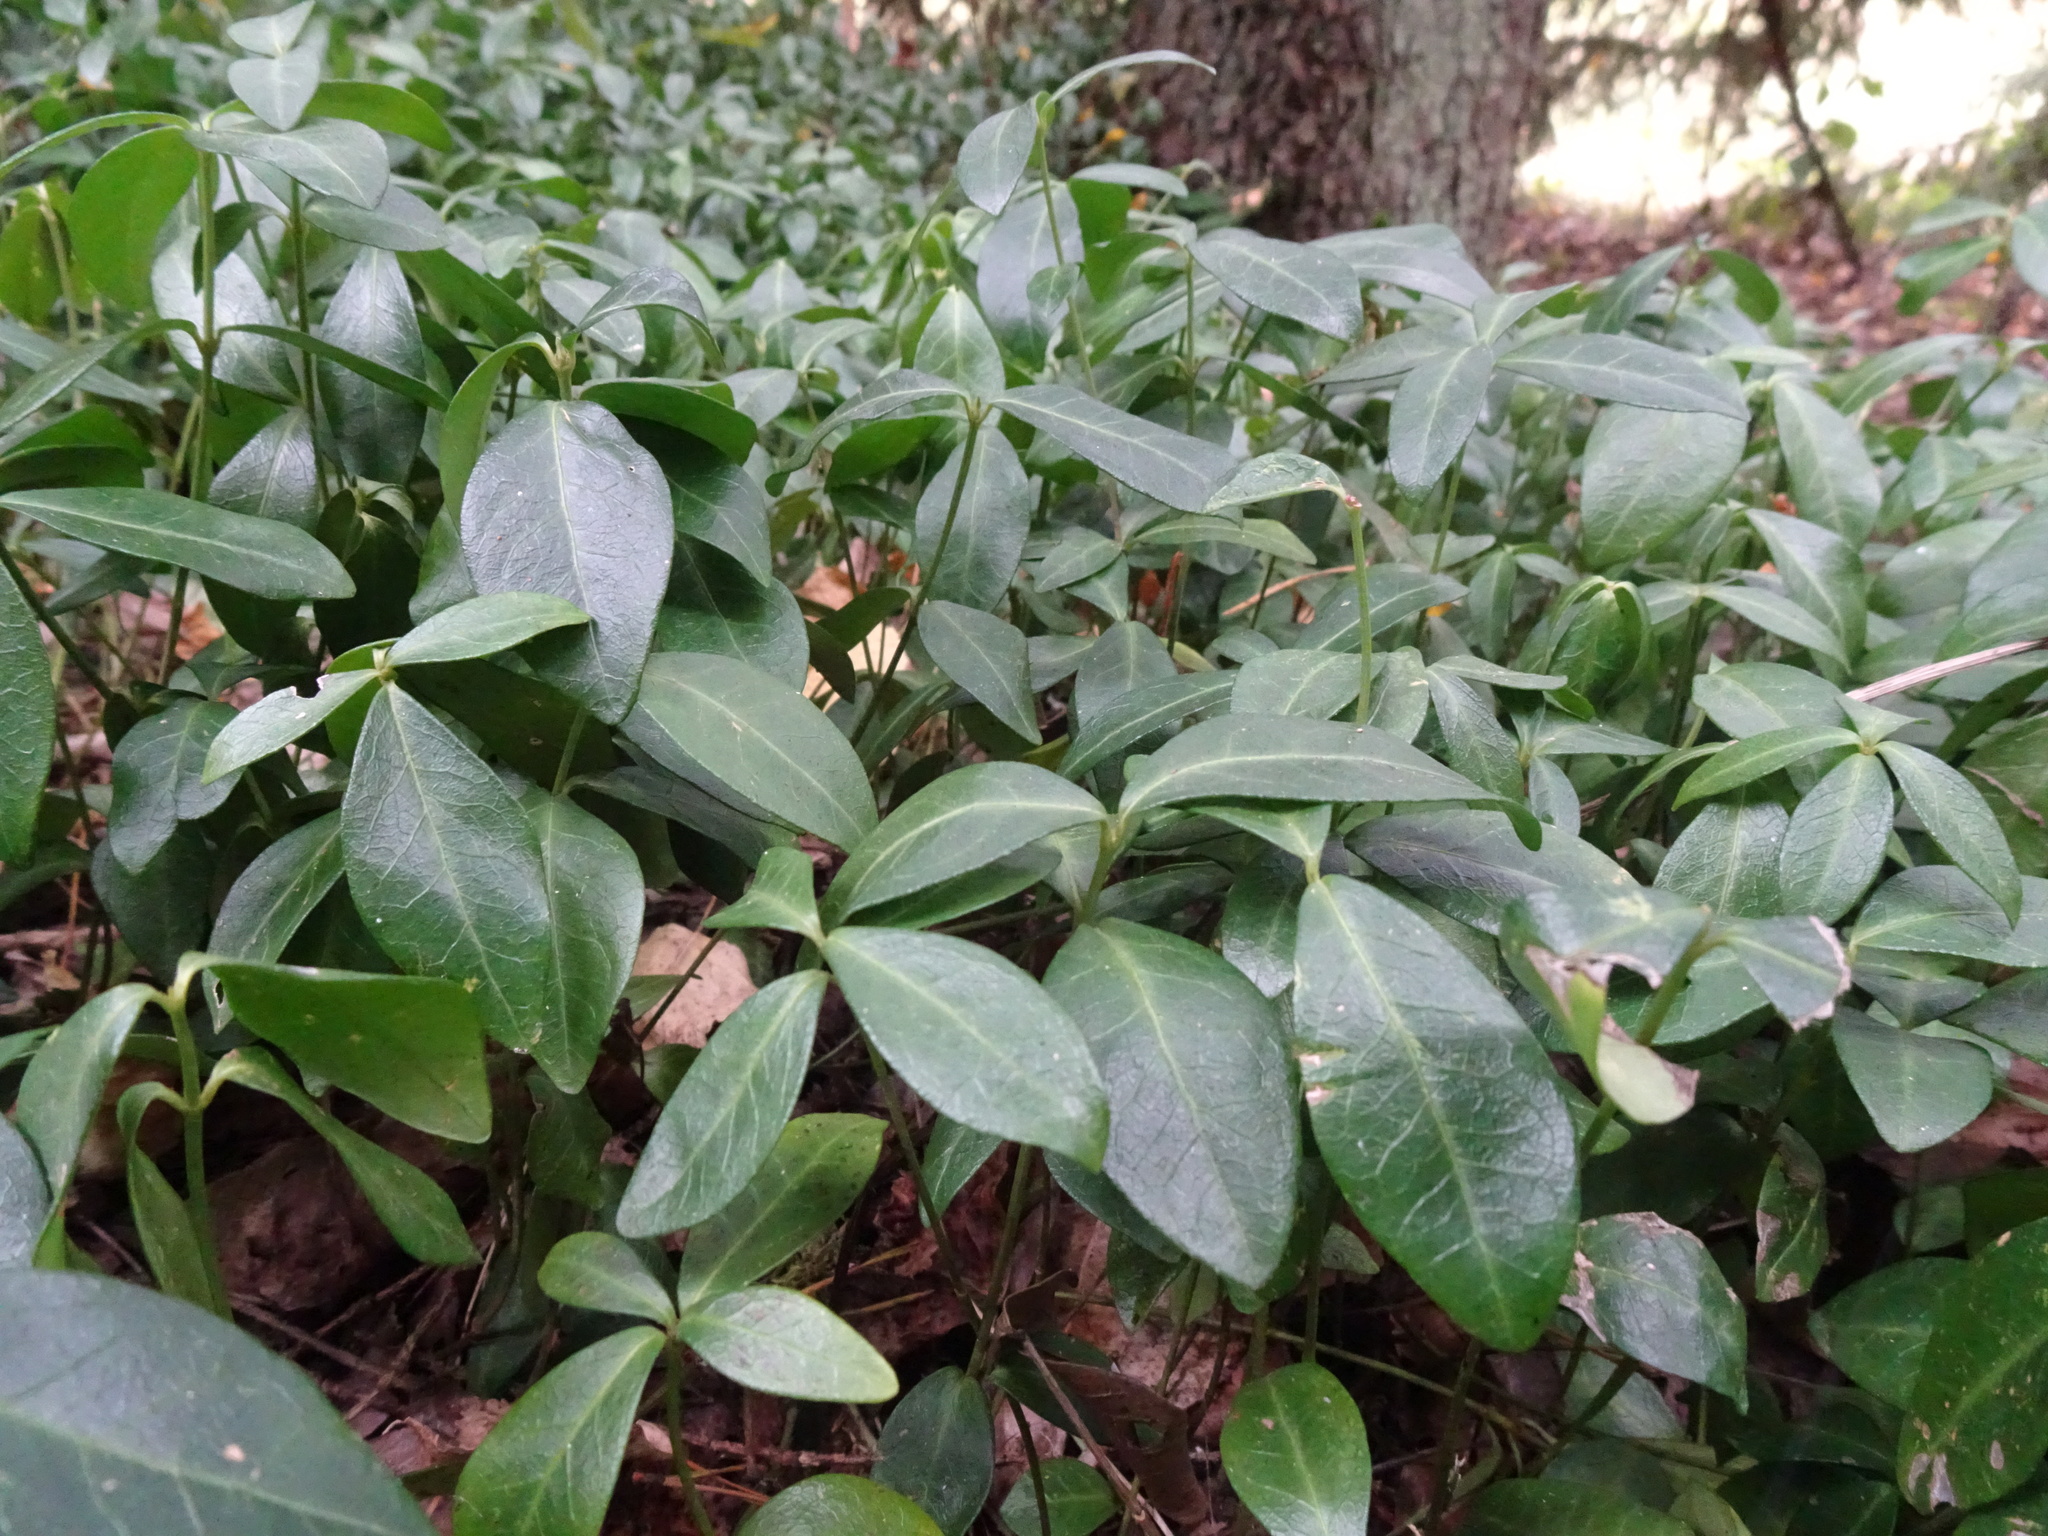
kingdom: Plantae
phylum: Tracheophyta
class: Magnoliopsida
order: Gentianales
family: Apocynaceae
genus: Vinca
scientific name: Vinca minor
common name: Lesser periwinkle
